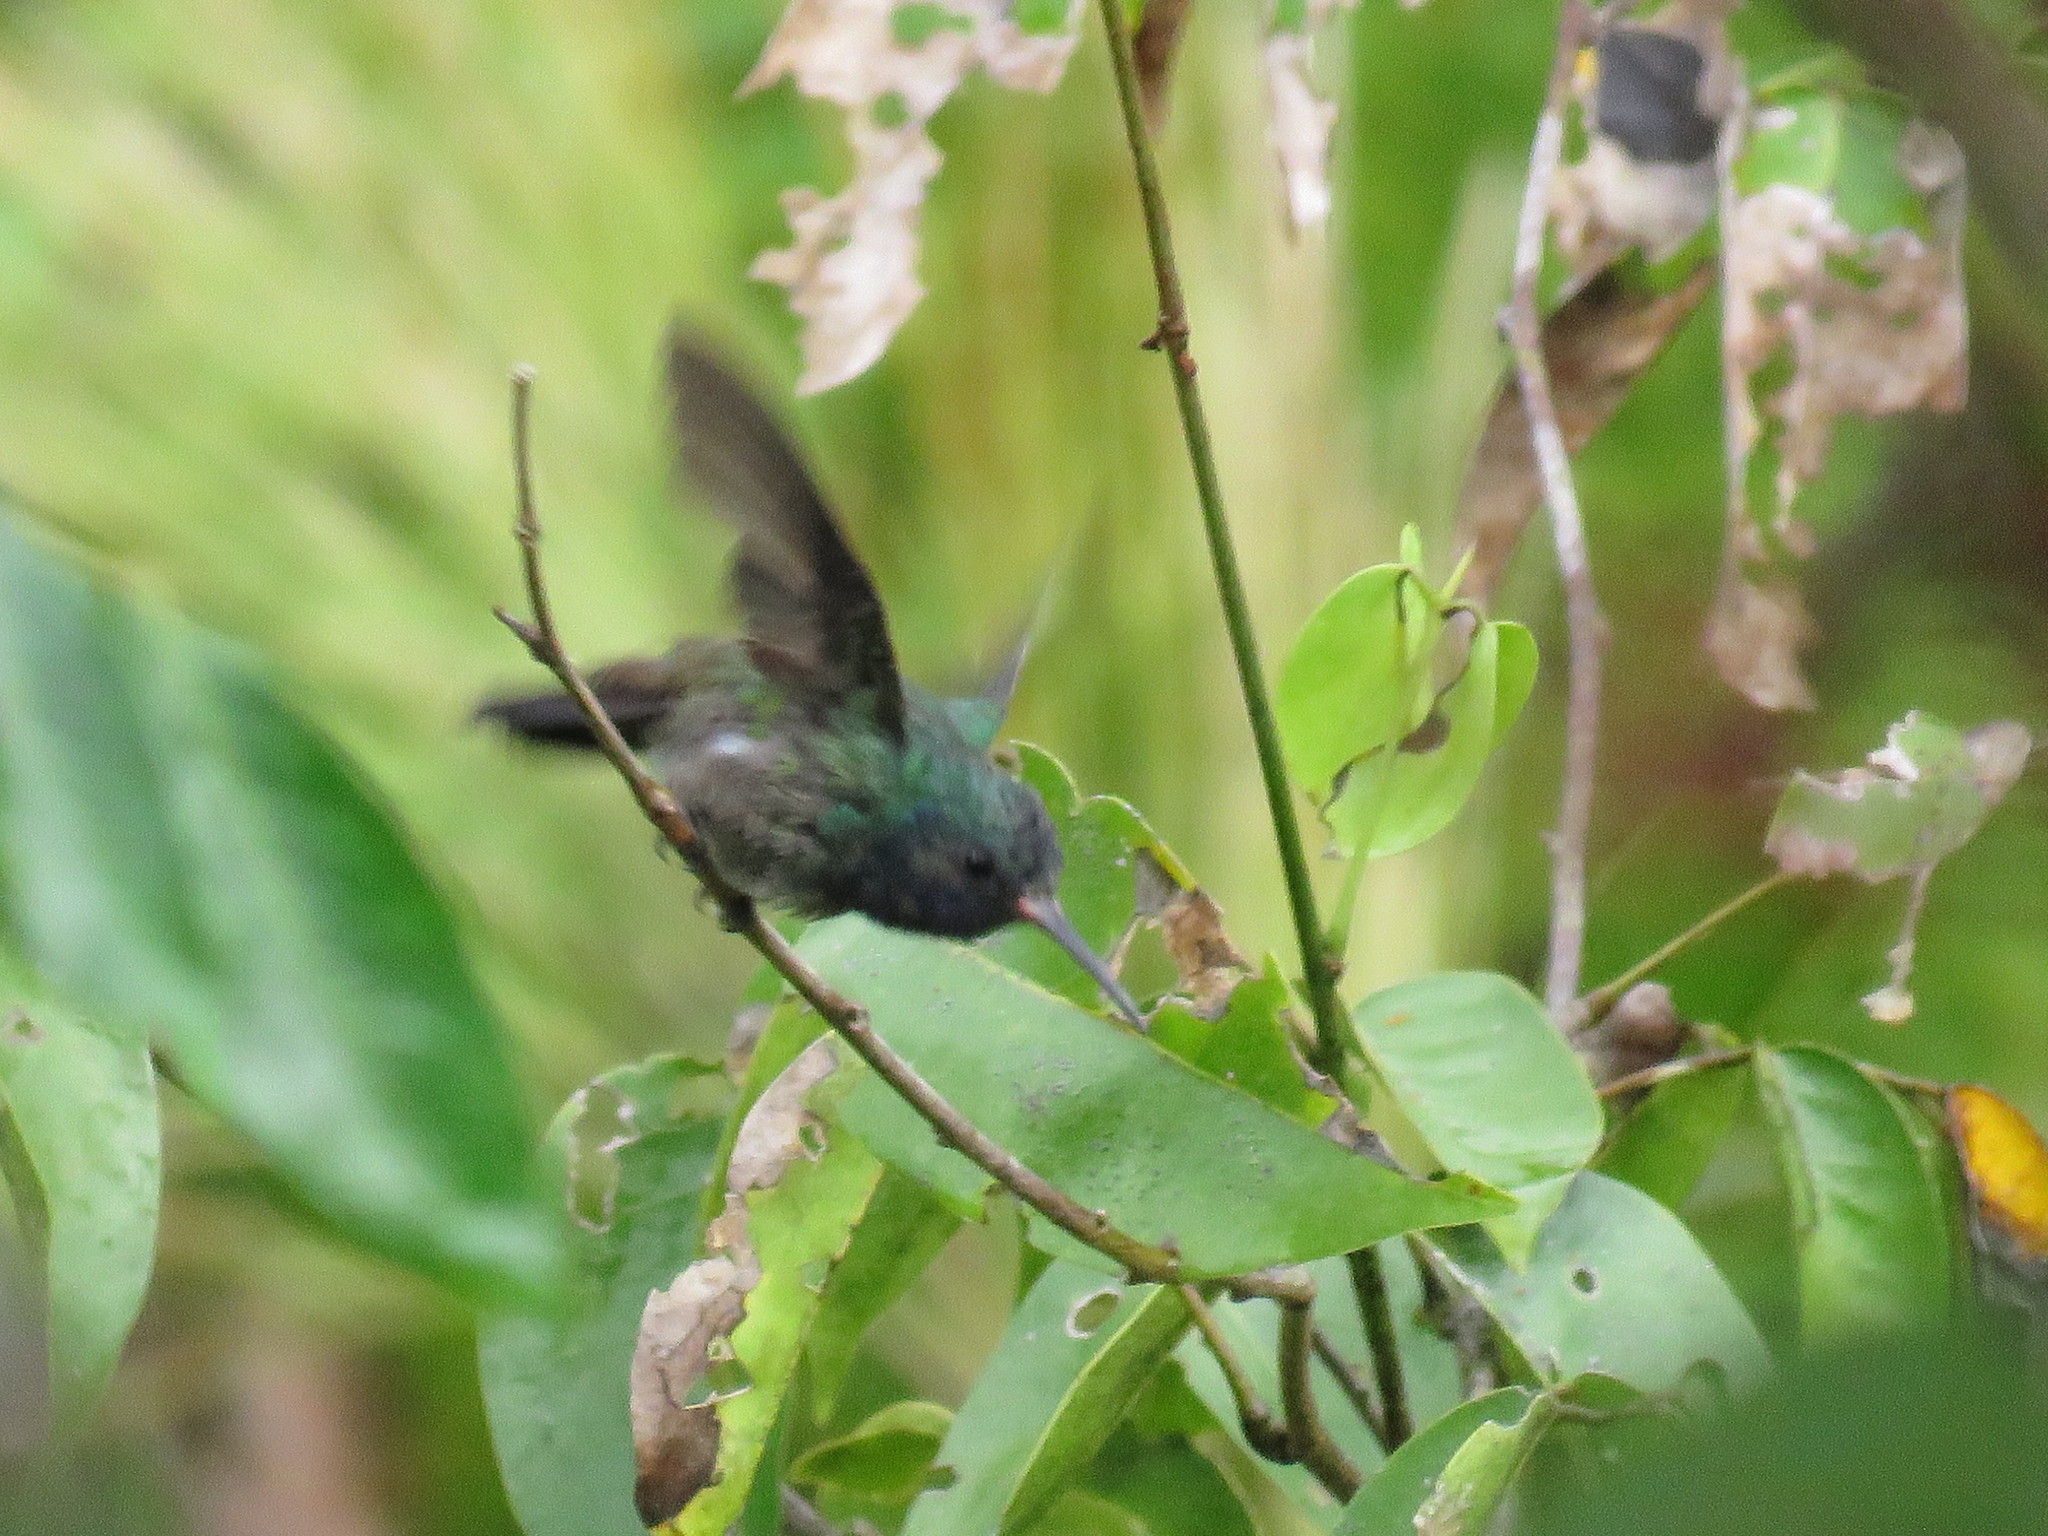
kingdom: Animalia
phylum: Chordata
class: Aves
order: Apodiformes
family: Trochilidae
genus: Chionomesa
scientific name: Chionomesa lactea
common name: Sapphire-spangled emerald
